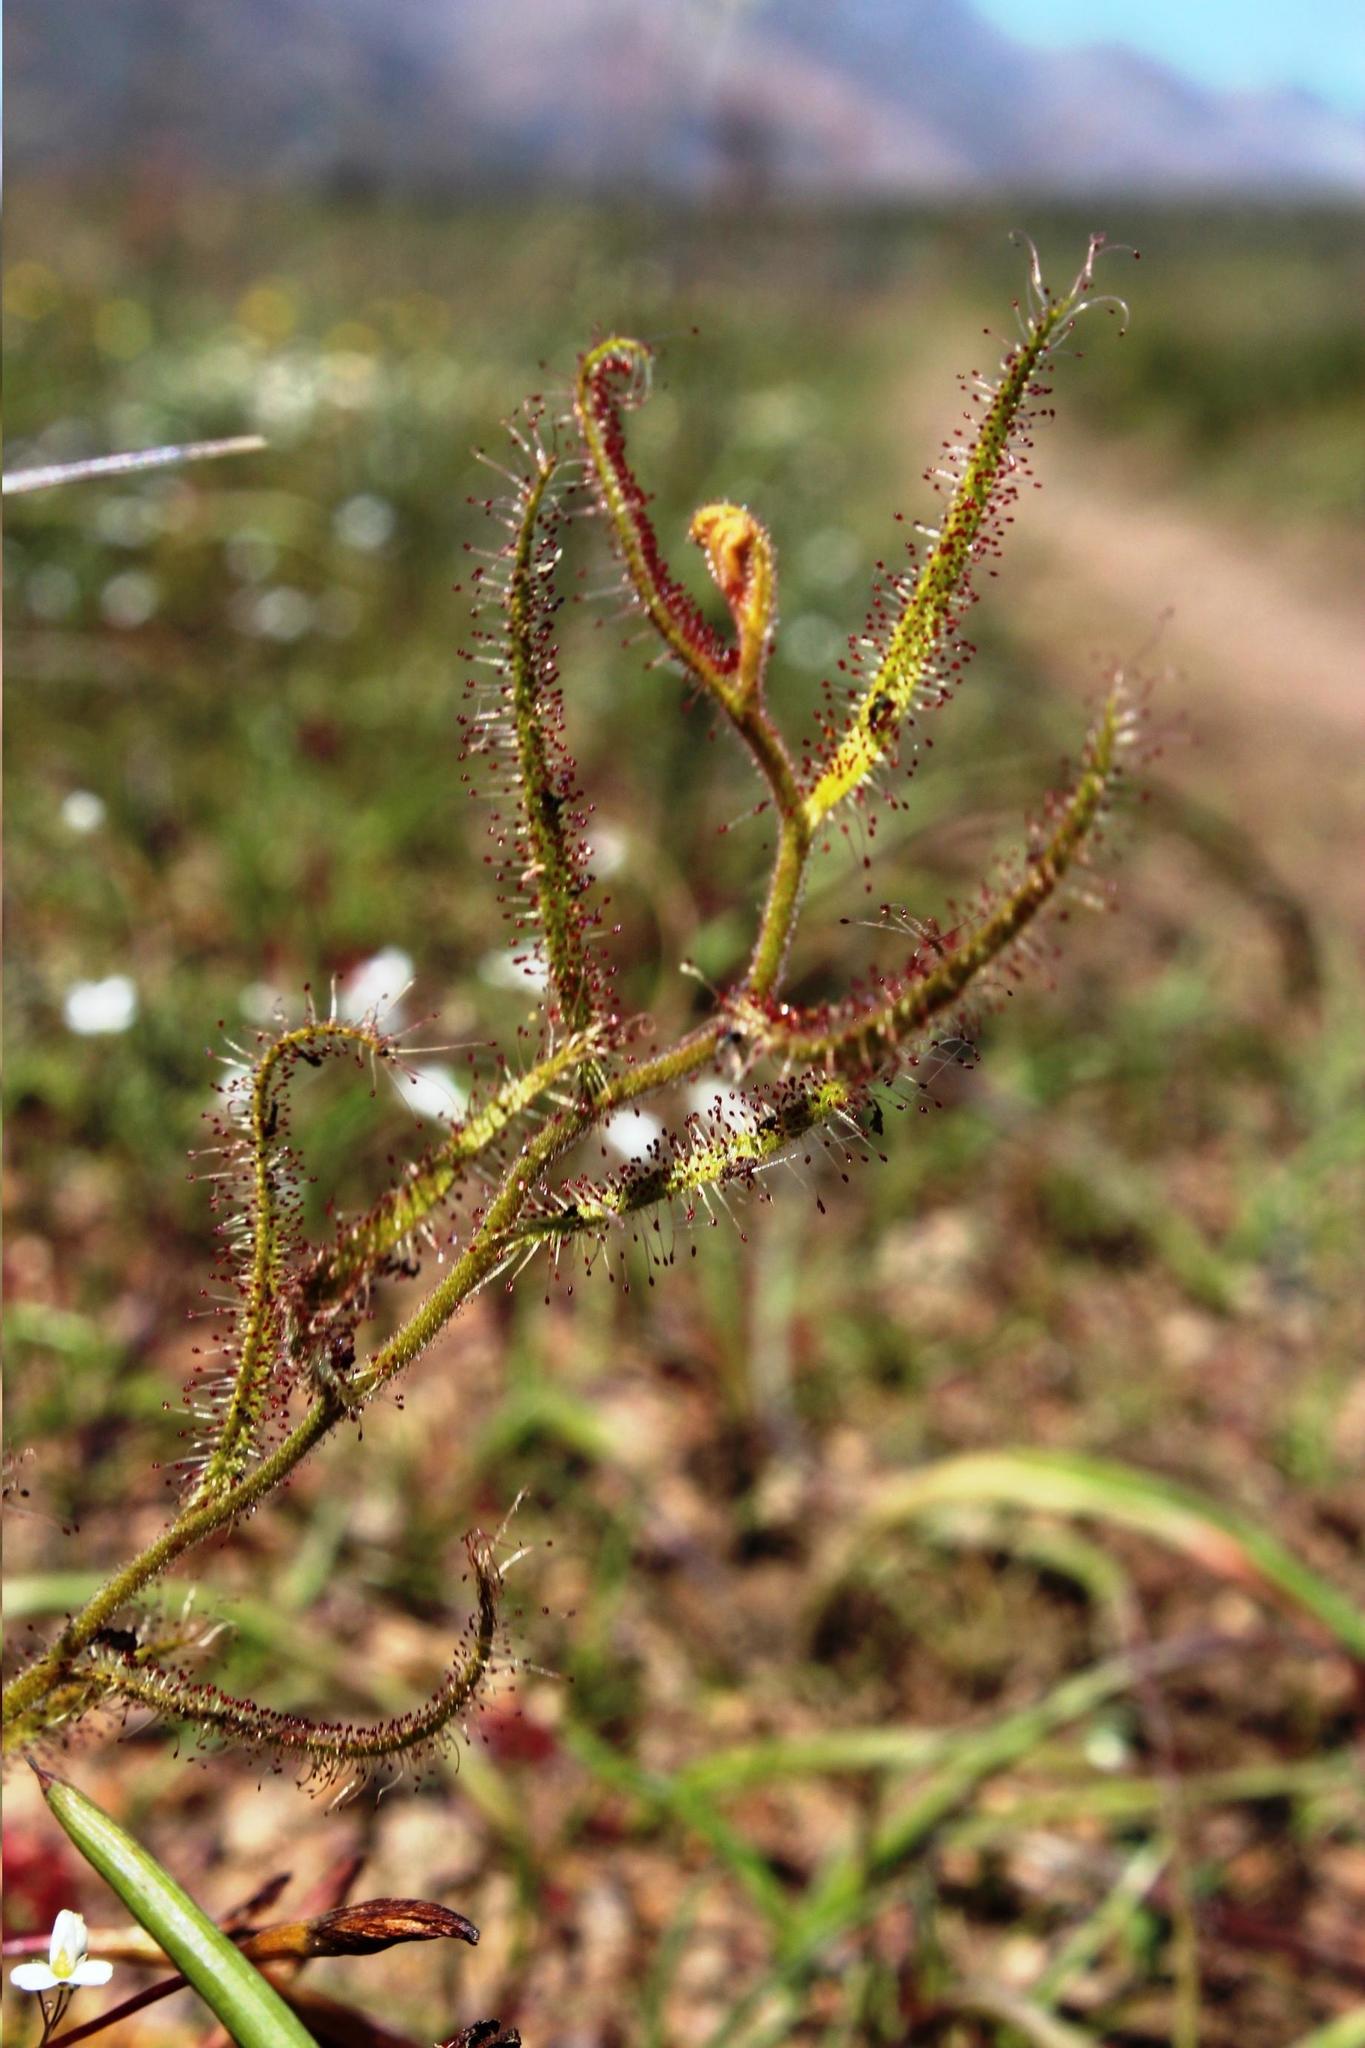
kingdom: Plantae
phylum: Tracheophyta
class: Magnoliopsida
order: Caryophyllales
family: Droseraceae
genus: Drosera
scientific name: Drosera cistiflora
